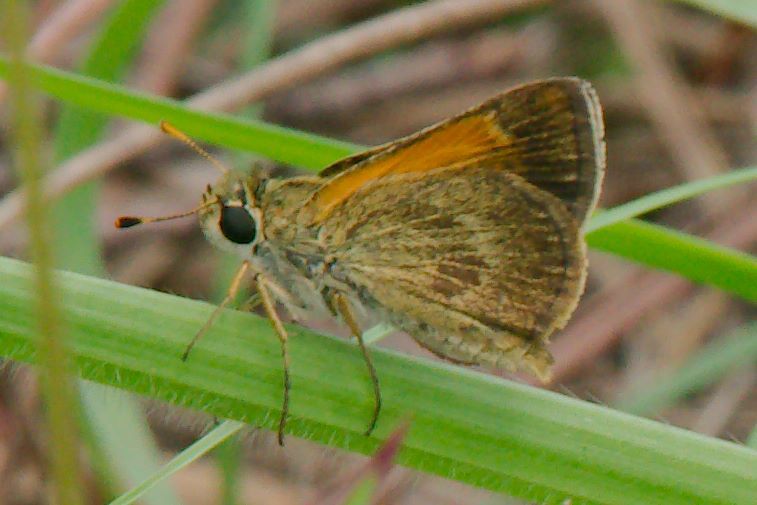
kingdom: Animalia
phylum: Arthropoda
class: Insecta
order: Lepidoptera
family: Hesperiidae
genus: Polites
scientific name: Polites baracoa
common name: Baracoa skipper
